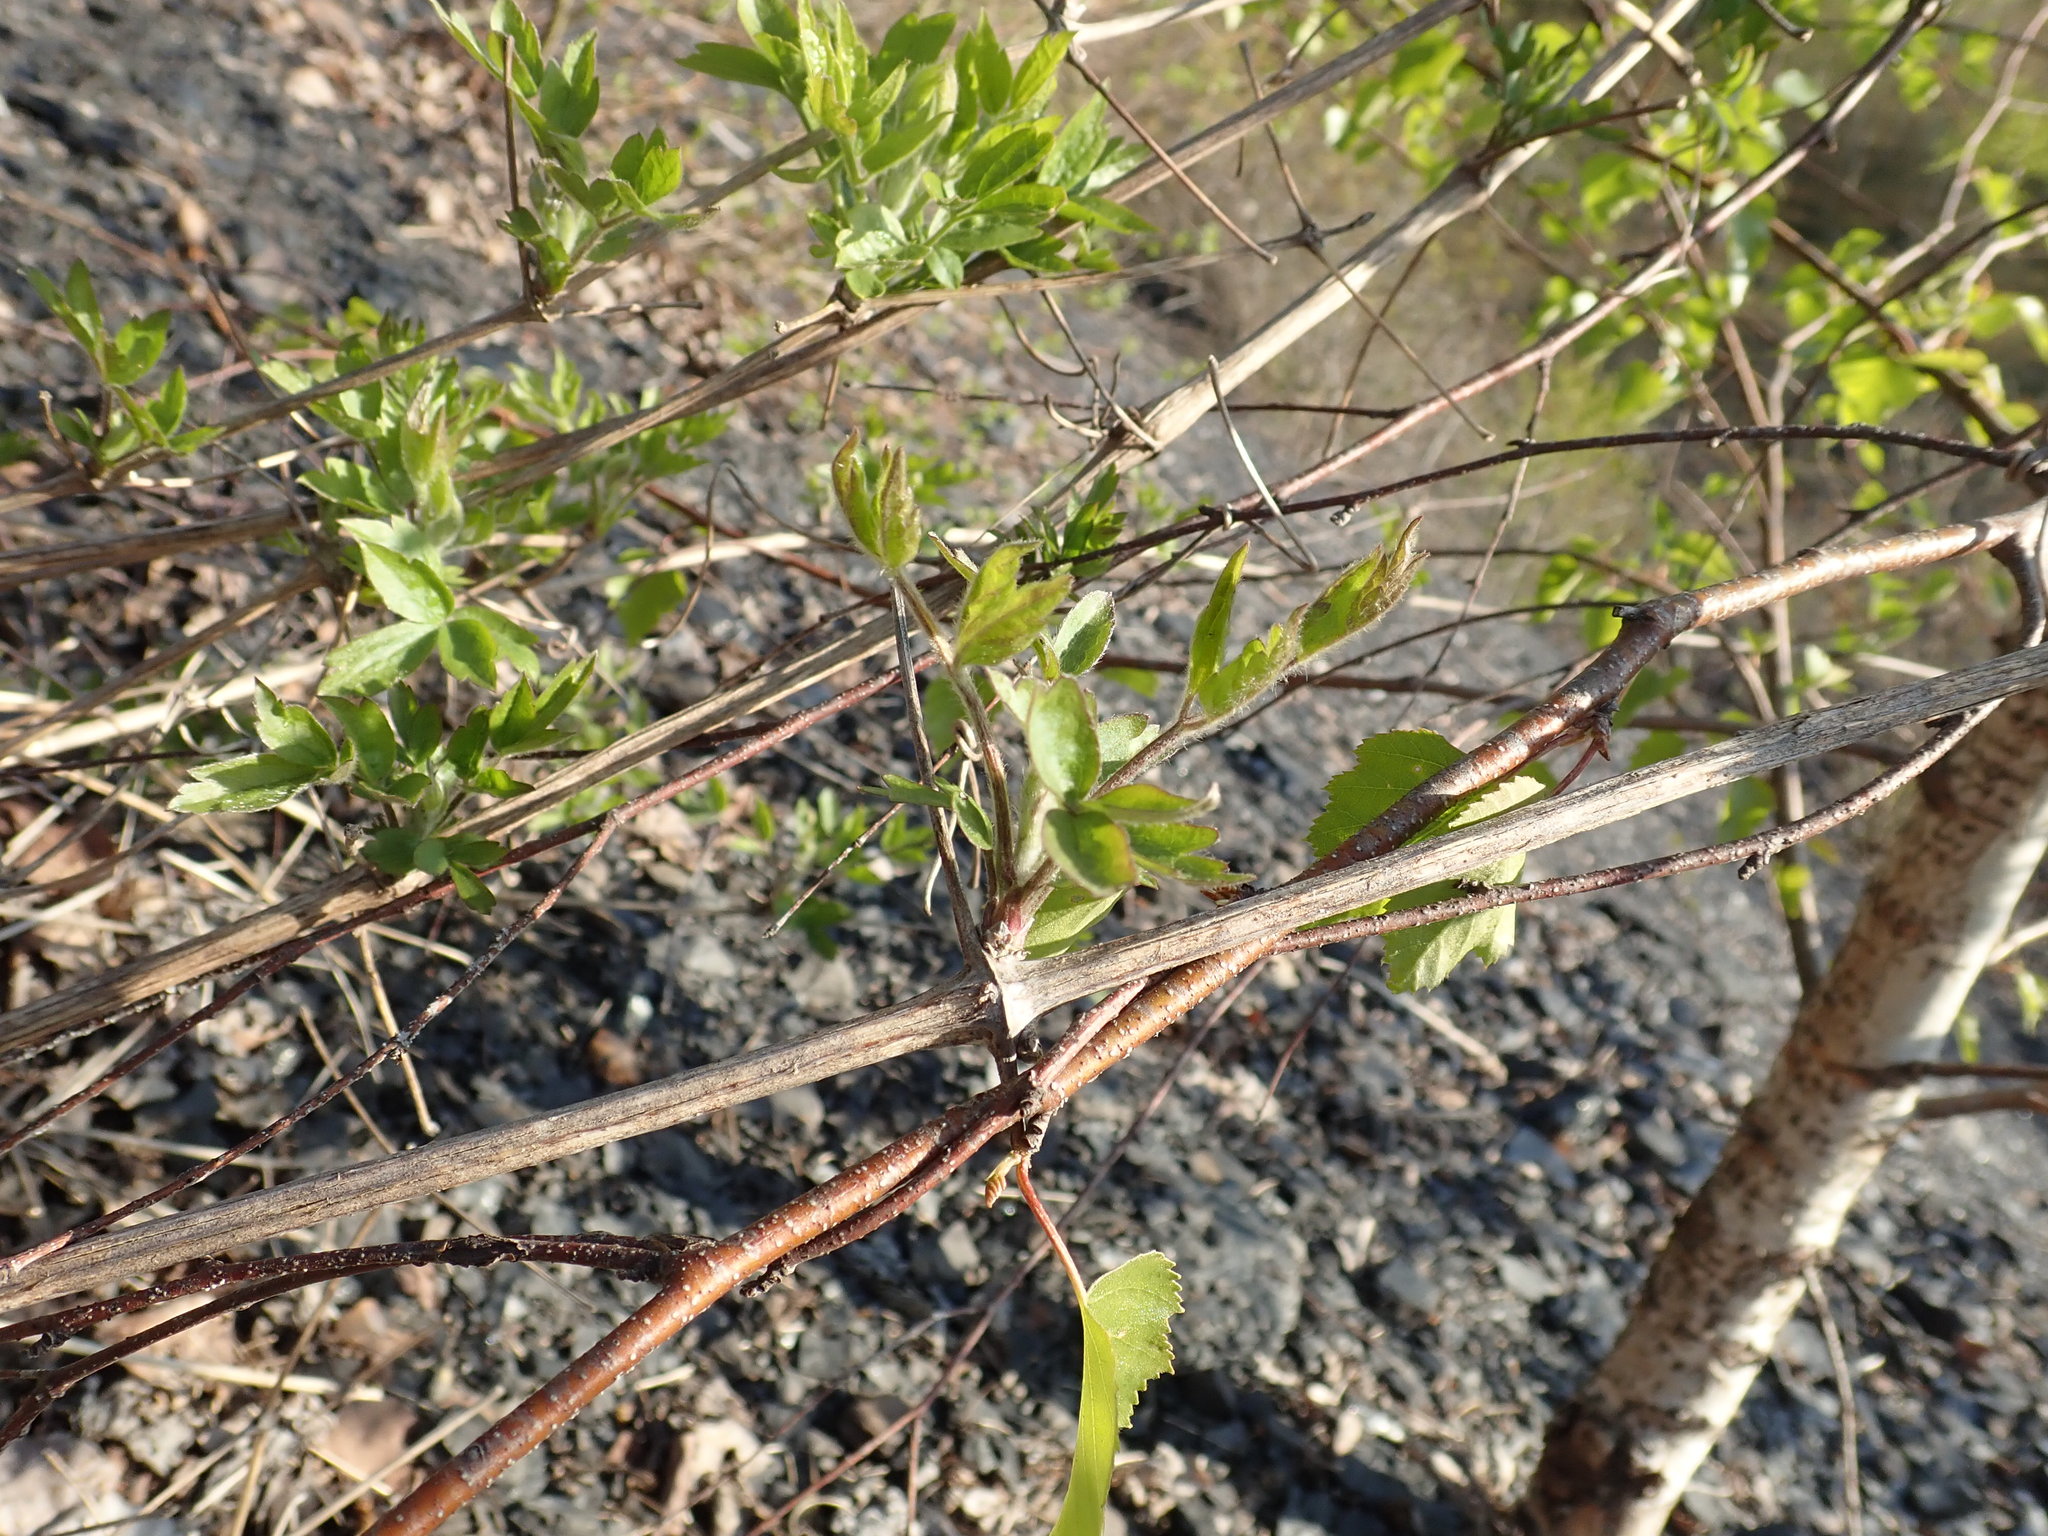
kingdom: Plantae
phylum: Tracheophyta
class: Magnoliopsida
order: Ranunculales
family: Ranunculaceae
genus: Clematis
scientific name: Clematis vitalba
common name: Evergreen clematis
